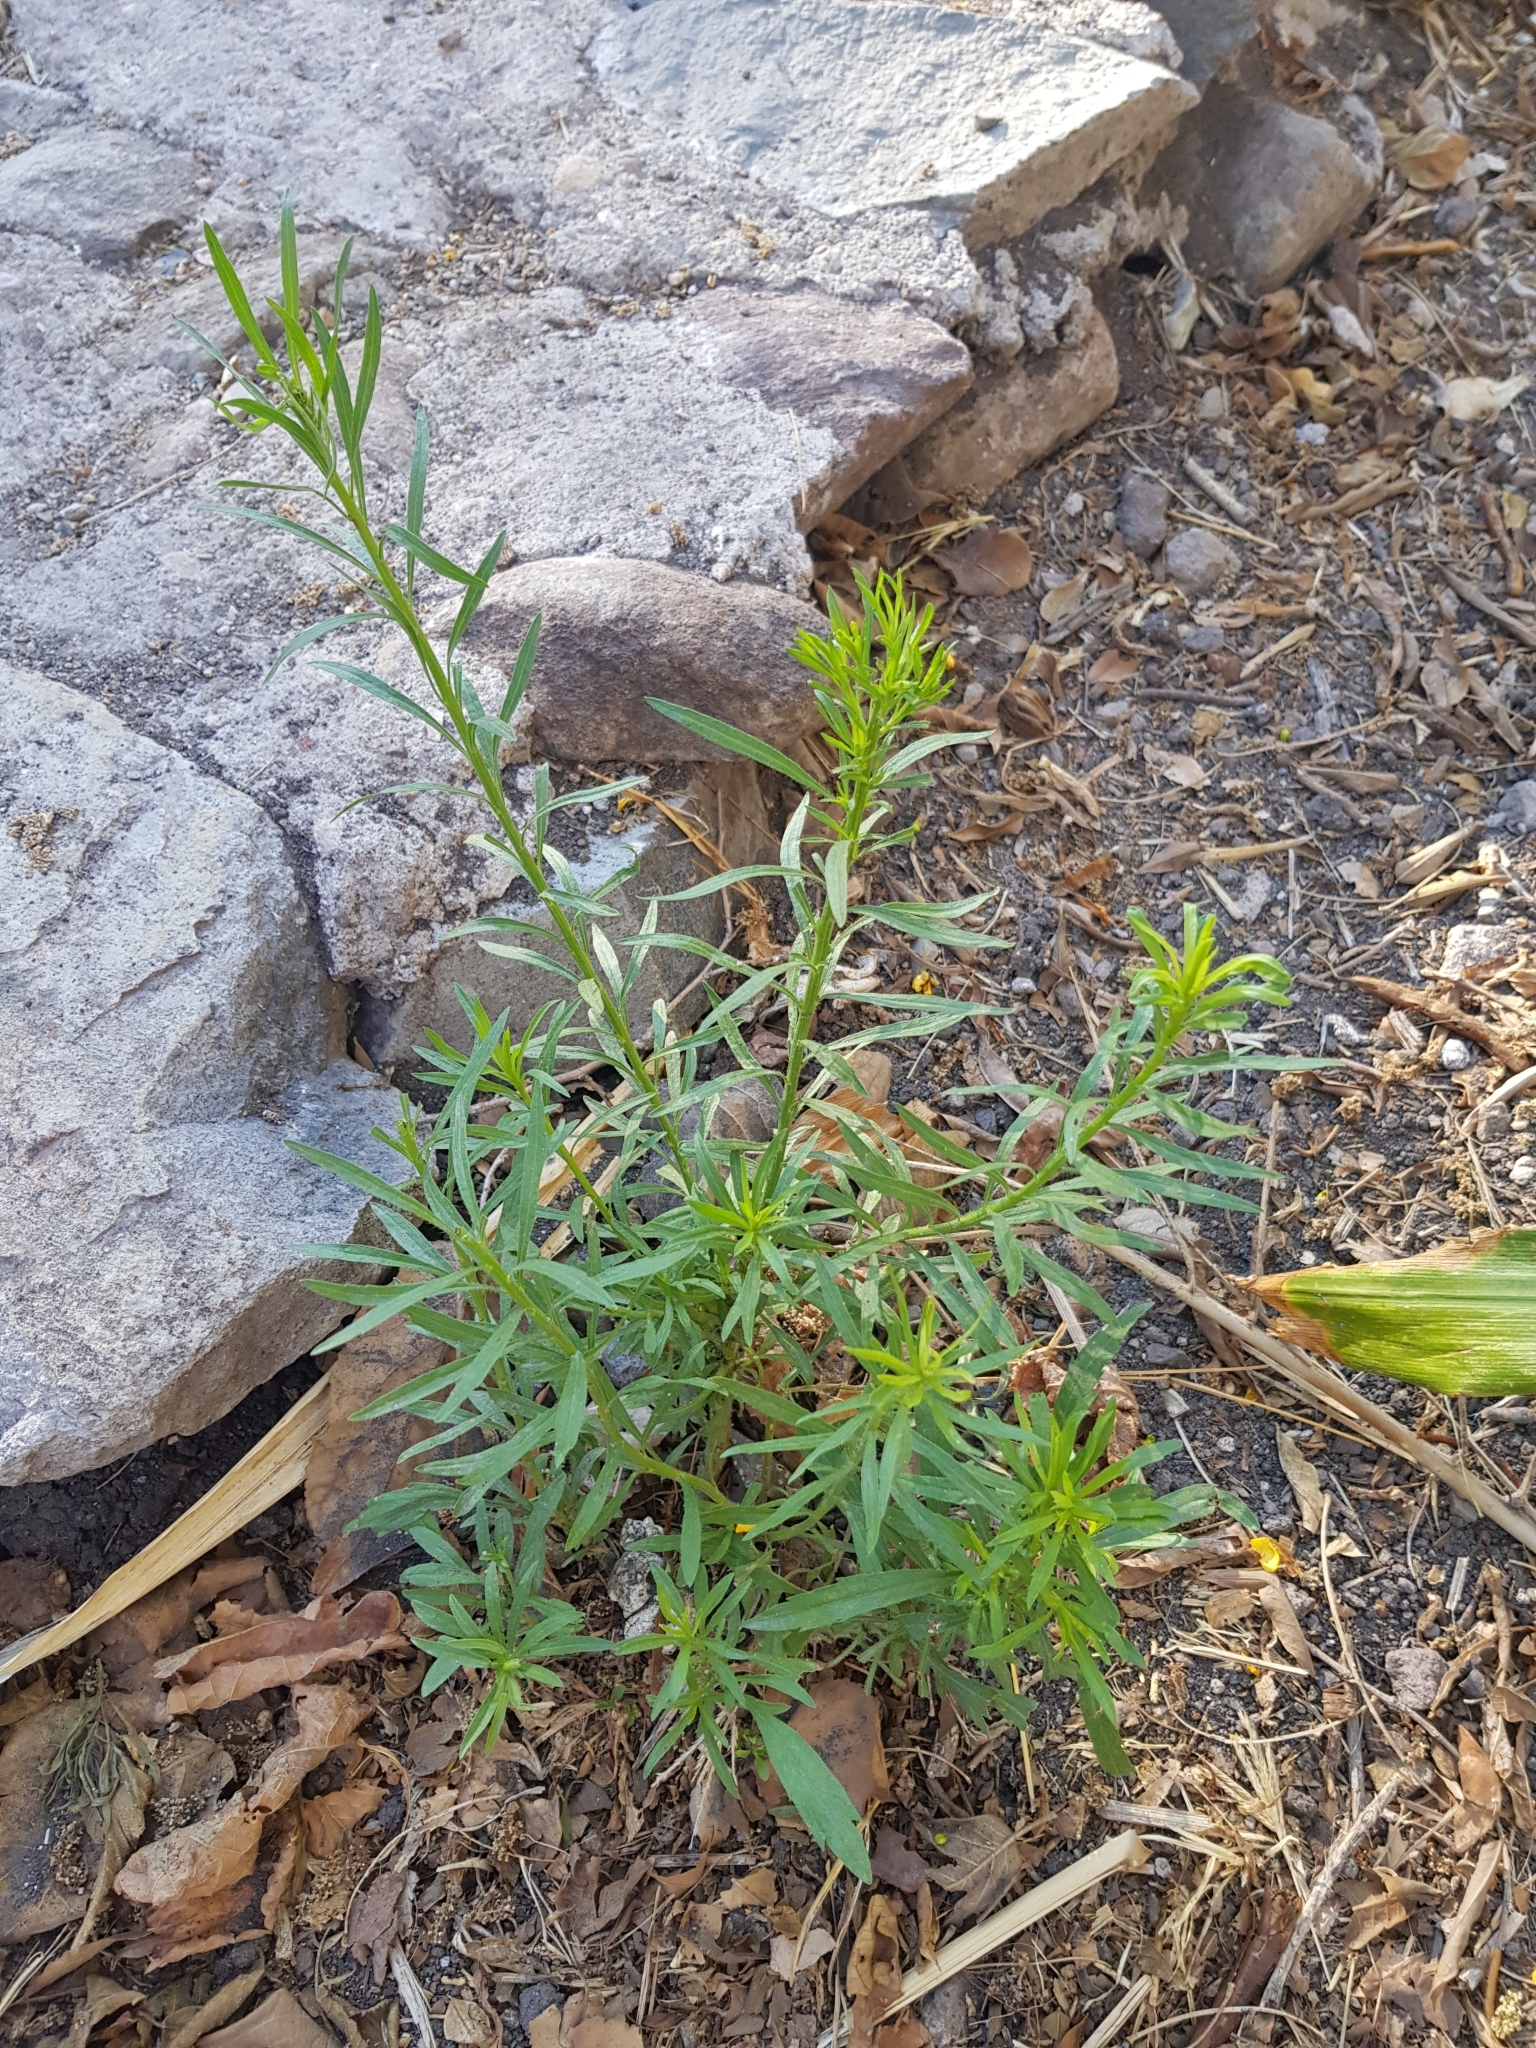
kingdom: Plantae
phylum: Tracheophyta
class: Magnoliopsida
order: Asterales
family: Asteraceae
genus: Erigeron
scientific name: Erigeron canadensis
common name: Canadian fleabane
